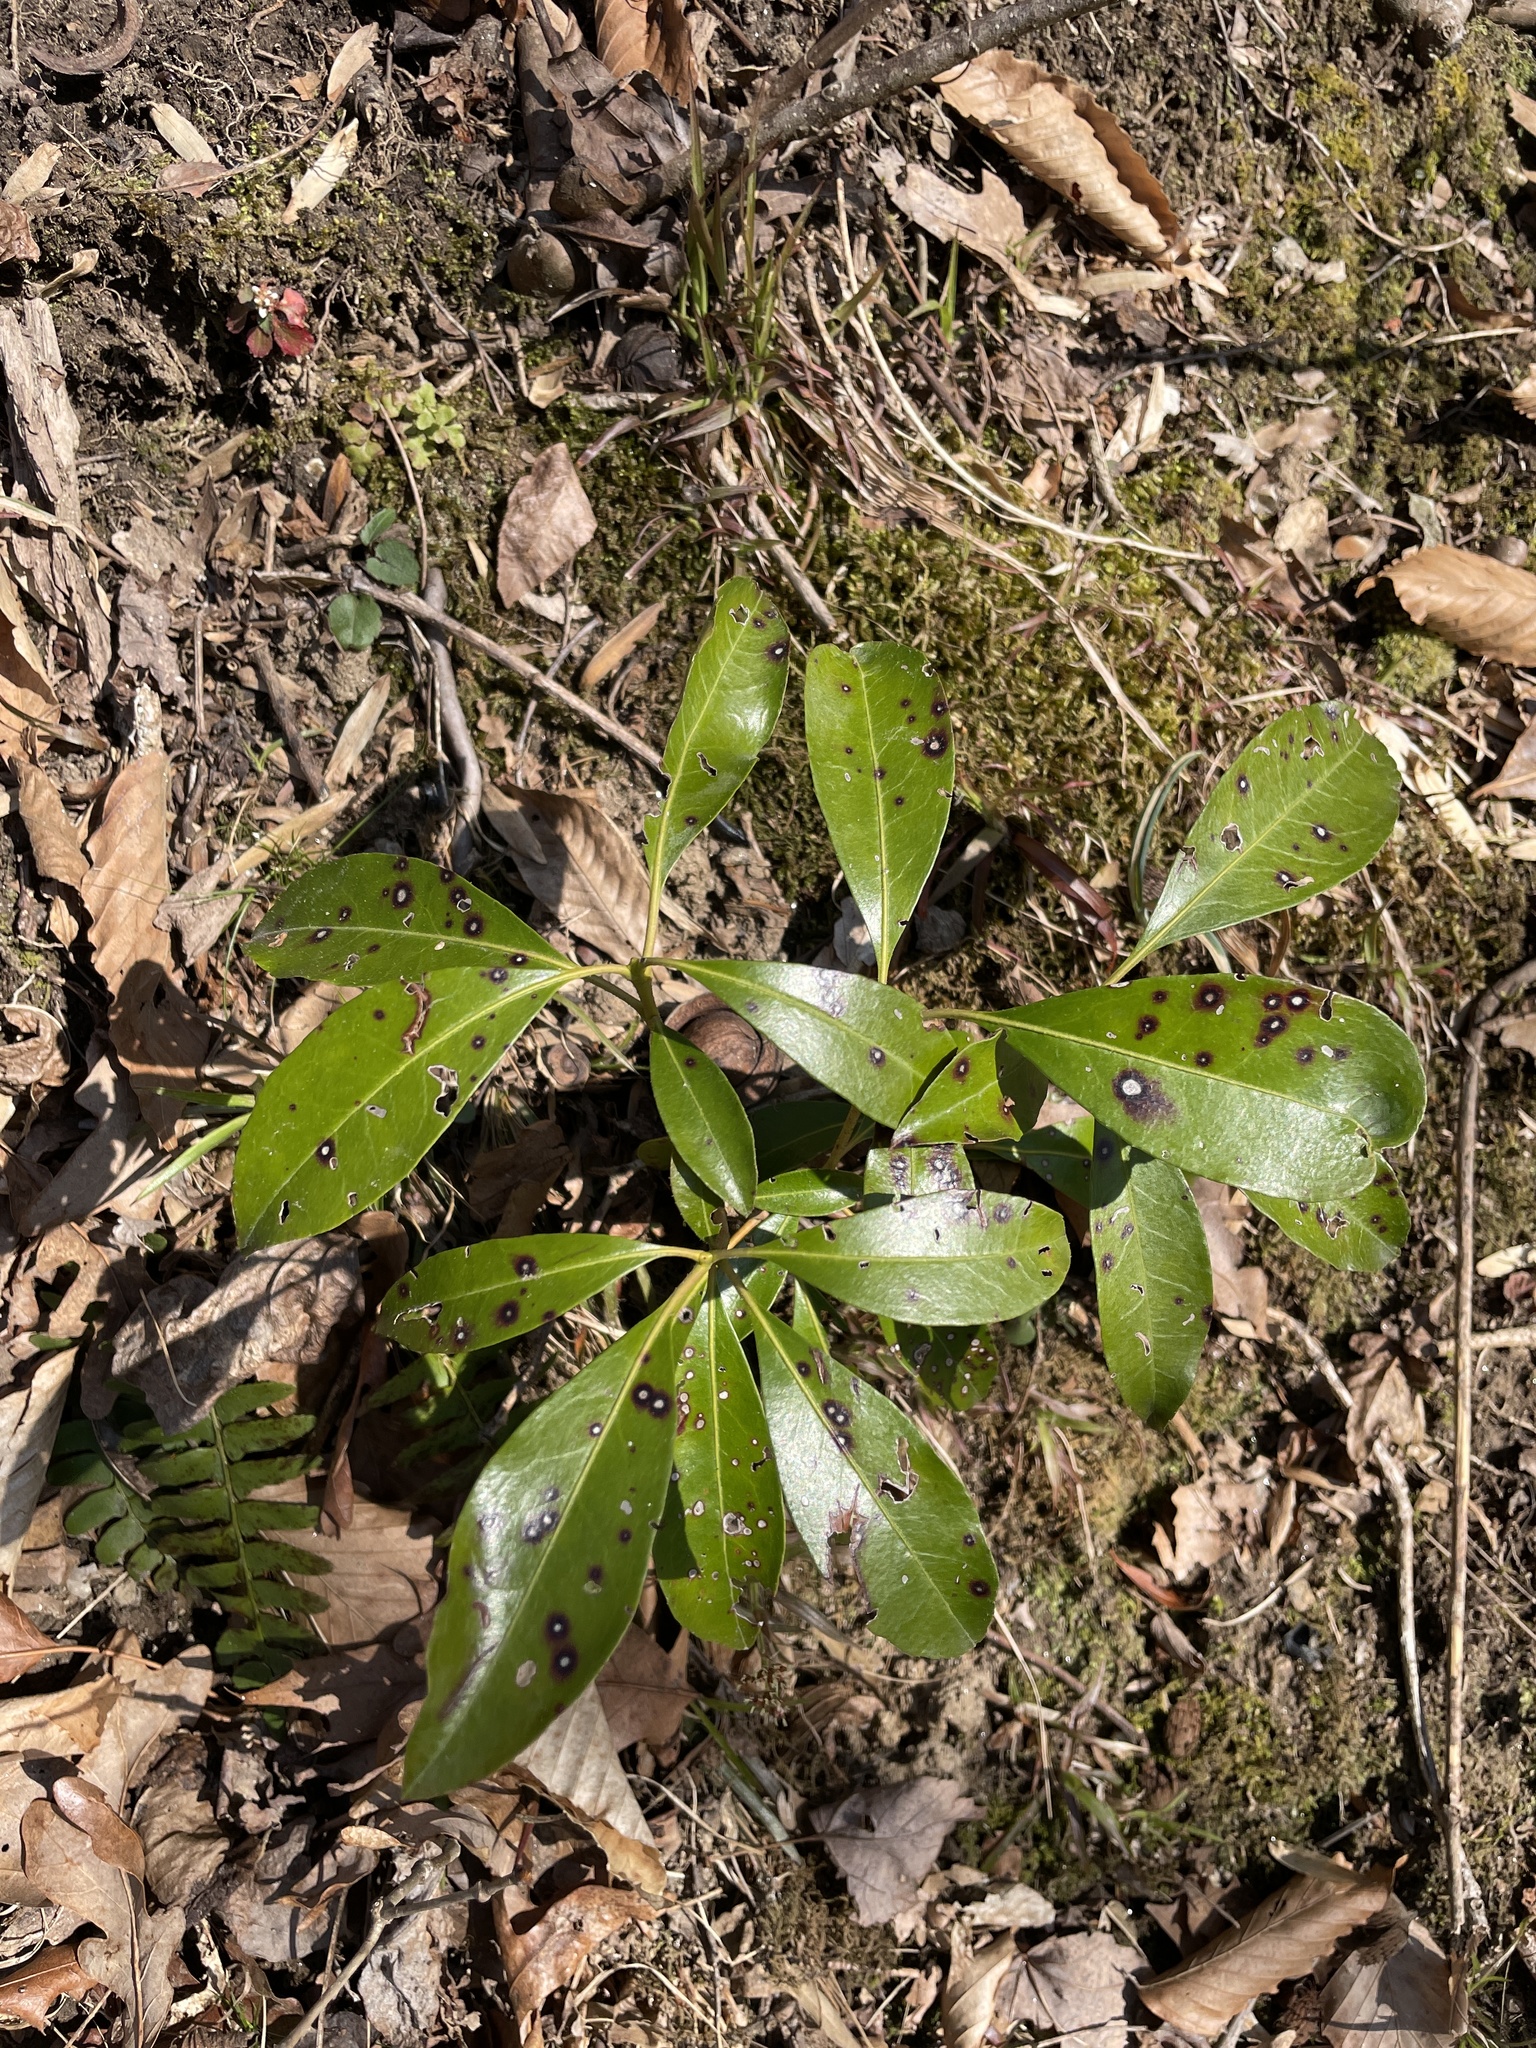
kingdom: Plantae
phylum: Tracheophyta
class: Magnoliopsida
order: Ericales
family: Ericaceae
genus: Kalmia
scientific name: Kalmia latifolia
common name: Mountain-laurel
